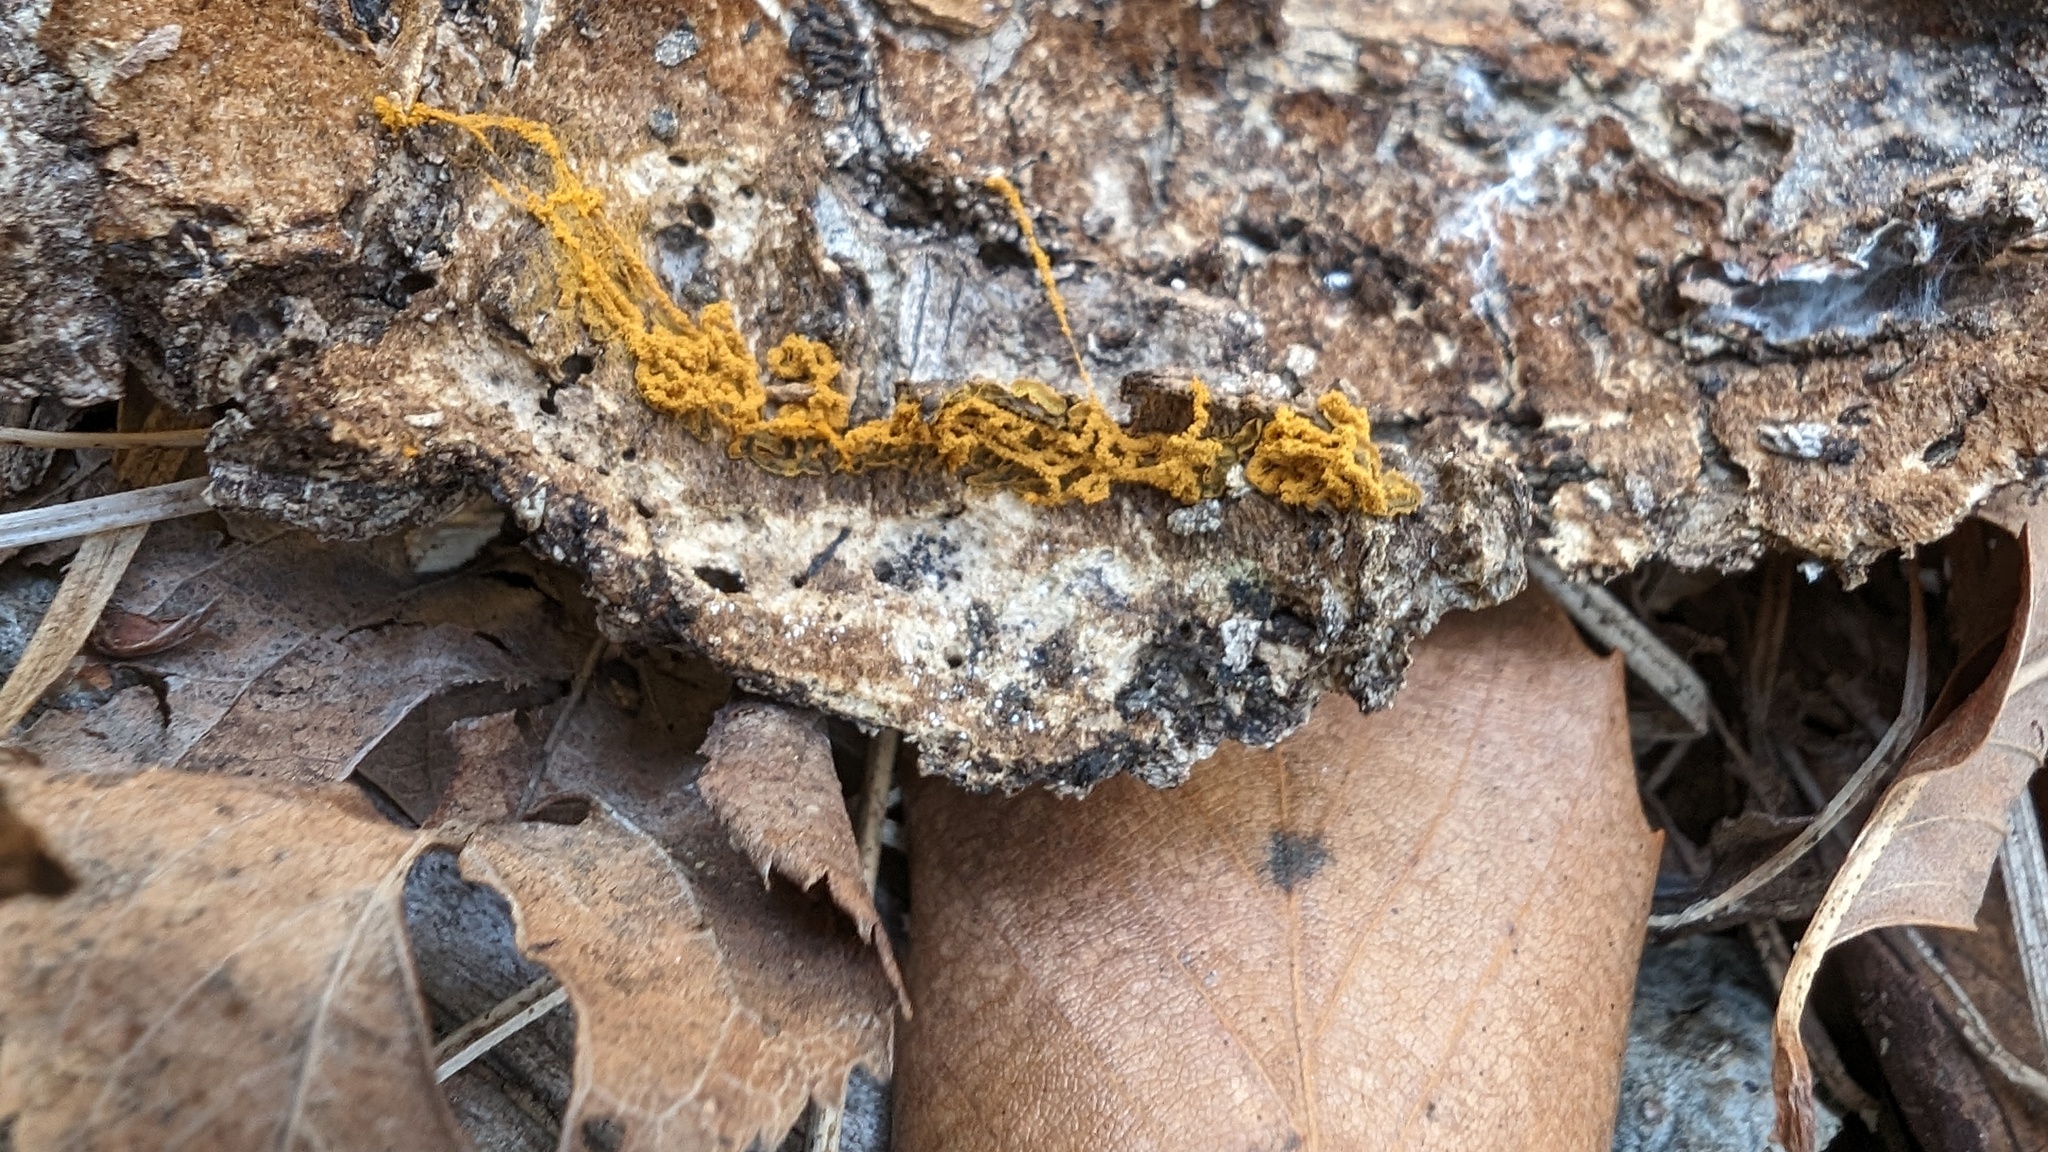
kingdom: Protozoa
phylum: Mycetozoa
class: Myxomycetes
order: Trichiales
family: Arcyriaceae
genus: Hemitrichia
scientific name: Hemitrichia serpula
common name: Pretzel slime mold
